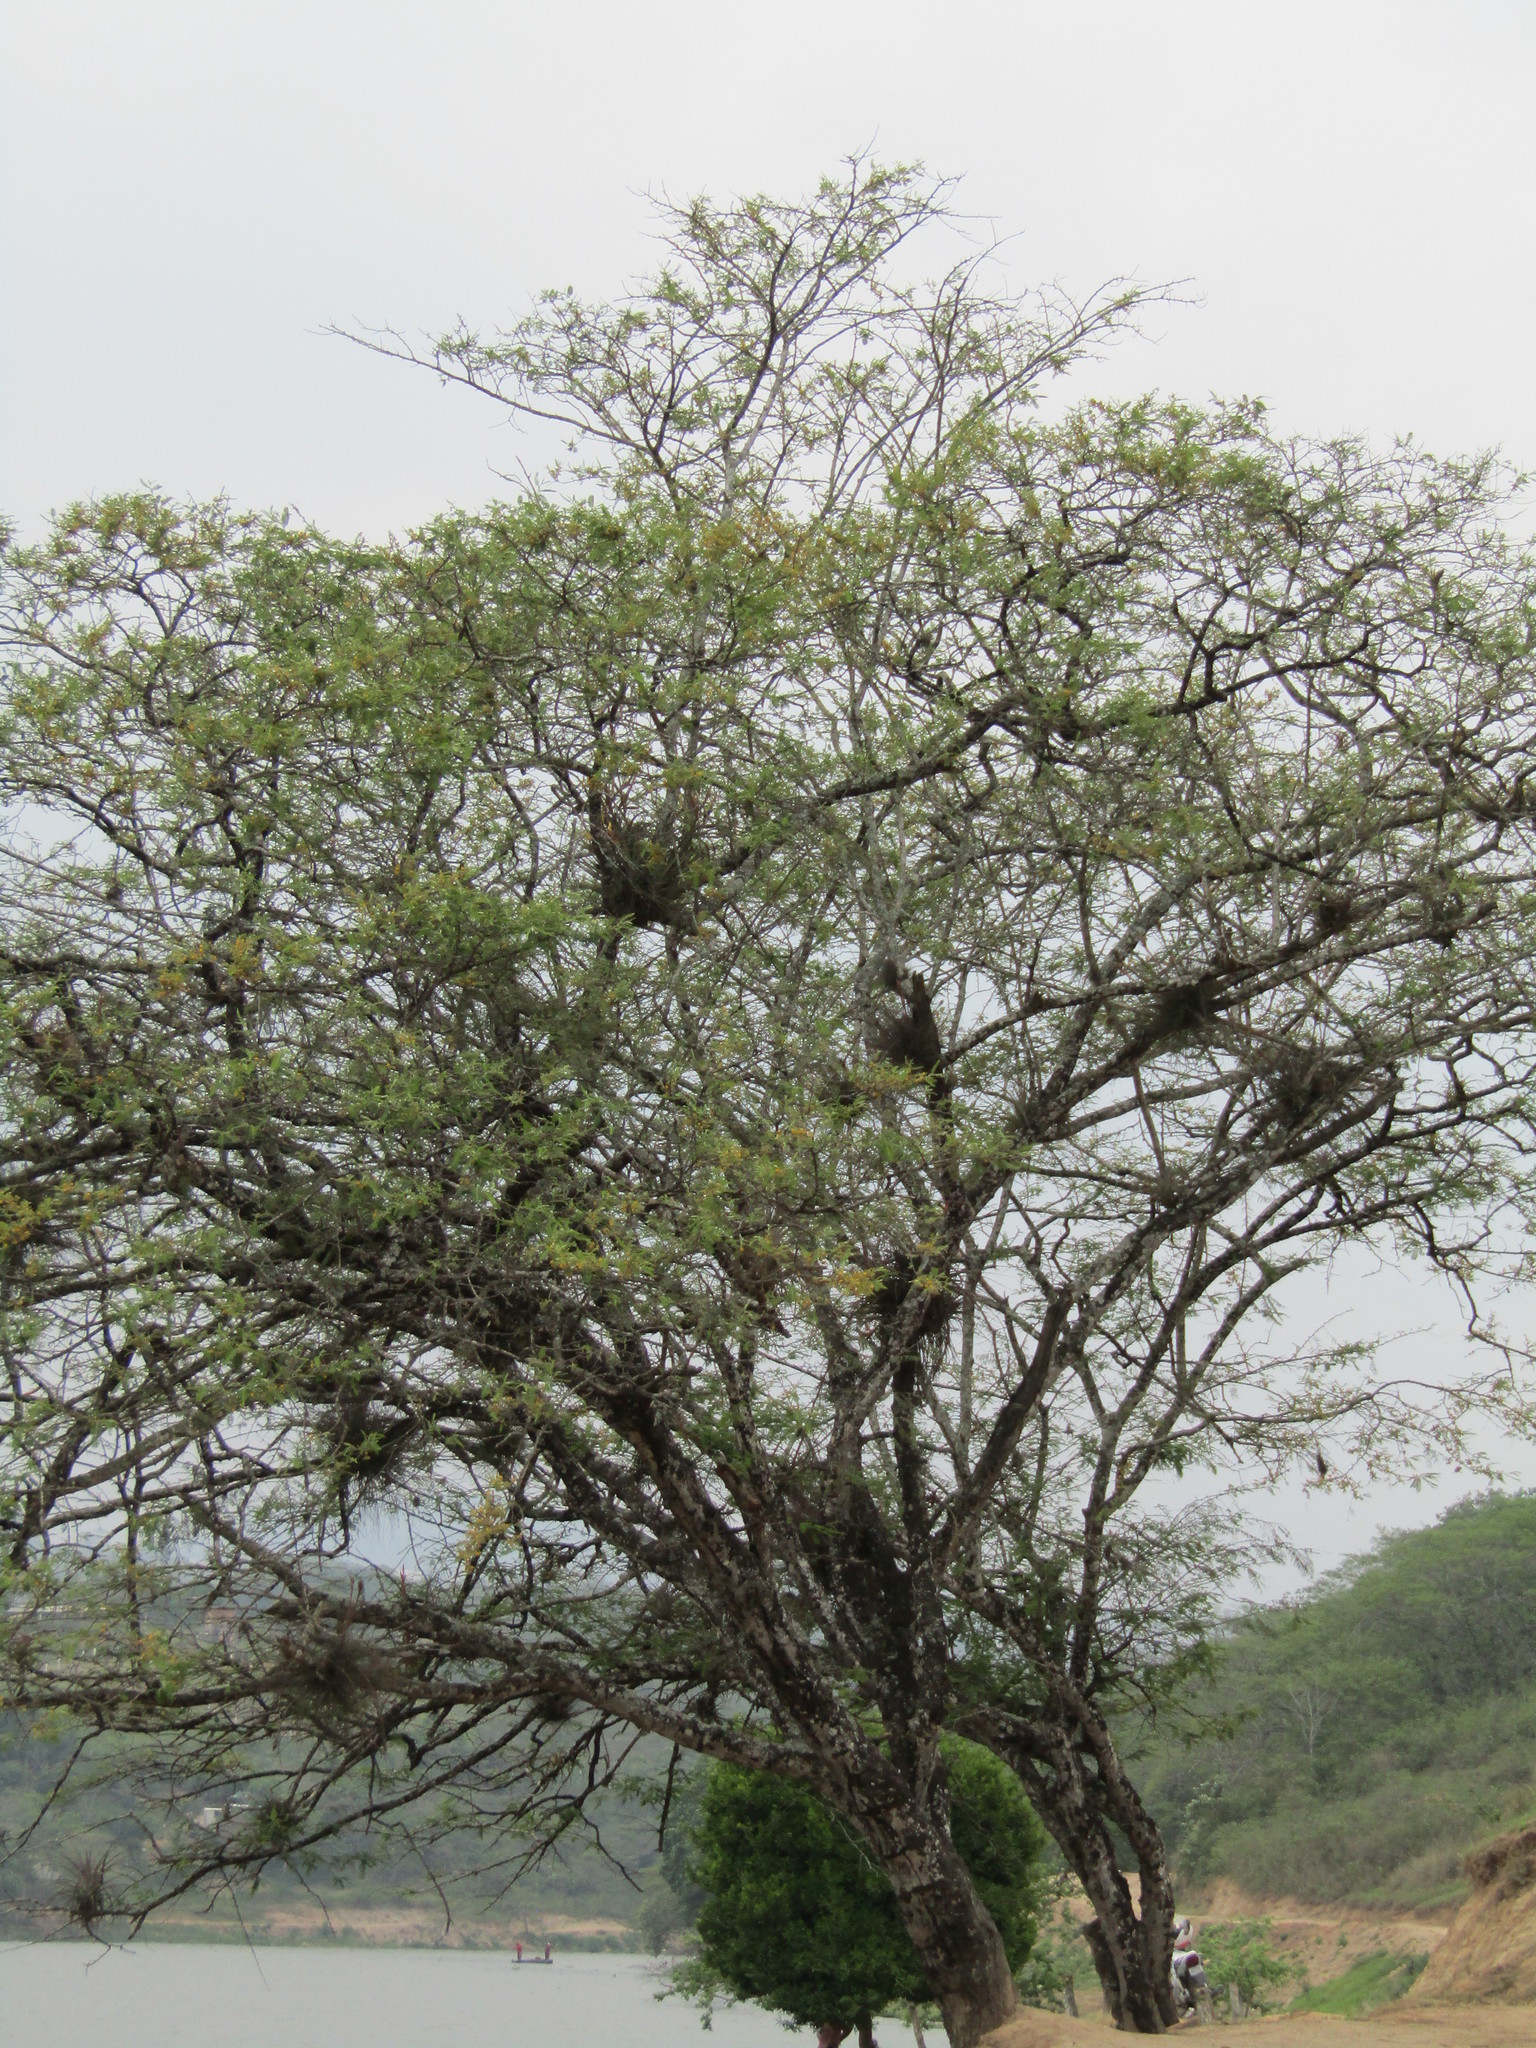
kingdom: Plantae
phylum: Tracheophyta
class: Magnoliopsida
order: Fabales
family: Fabaceae
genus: Vachellia
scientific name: Vachellia farnesiana
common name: Sweet acacia
